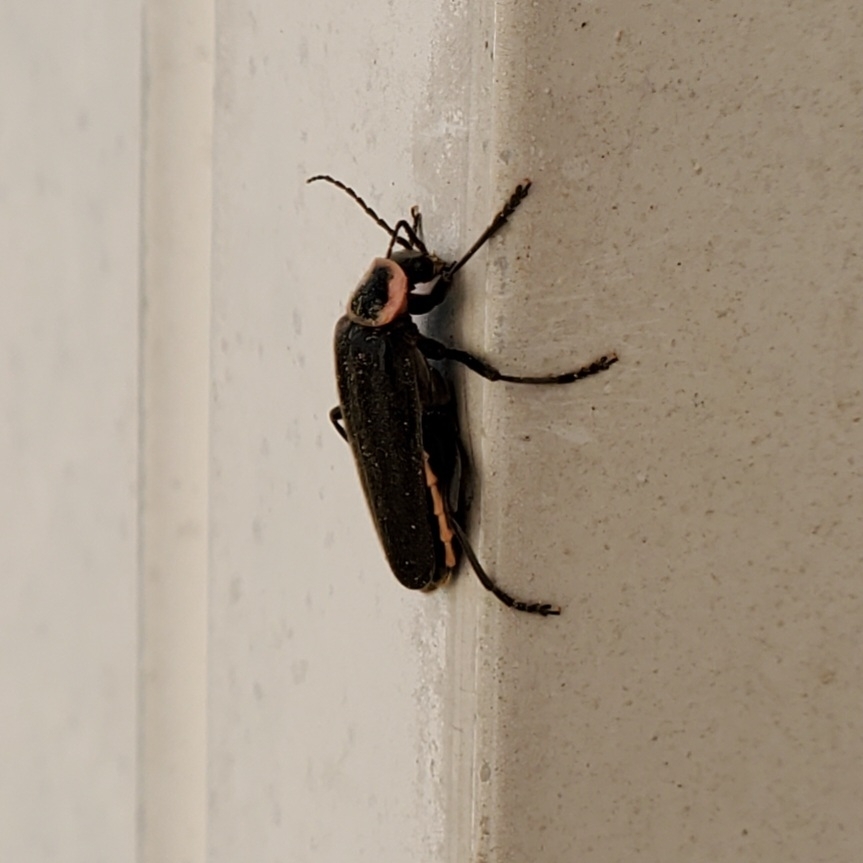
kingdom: Animalia
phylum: Arthropoda
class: Insecta
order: Coleoptera
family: Cantharidae
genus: Atalantycha
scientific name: Atalantycha neglecta
